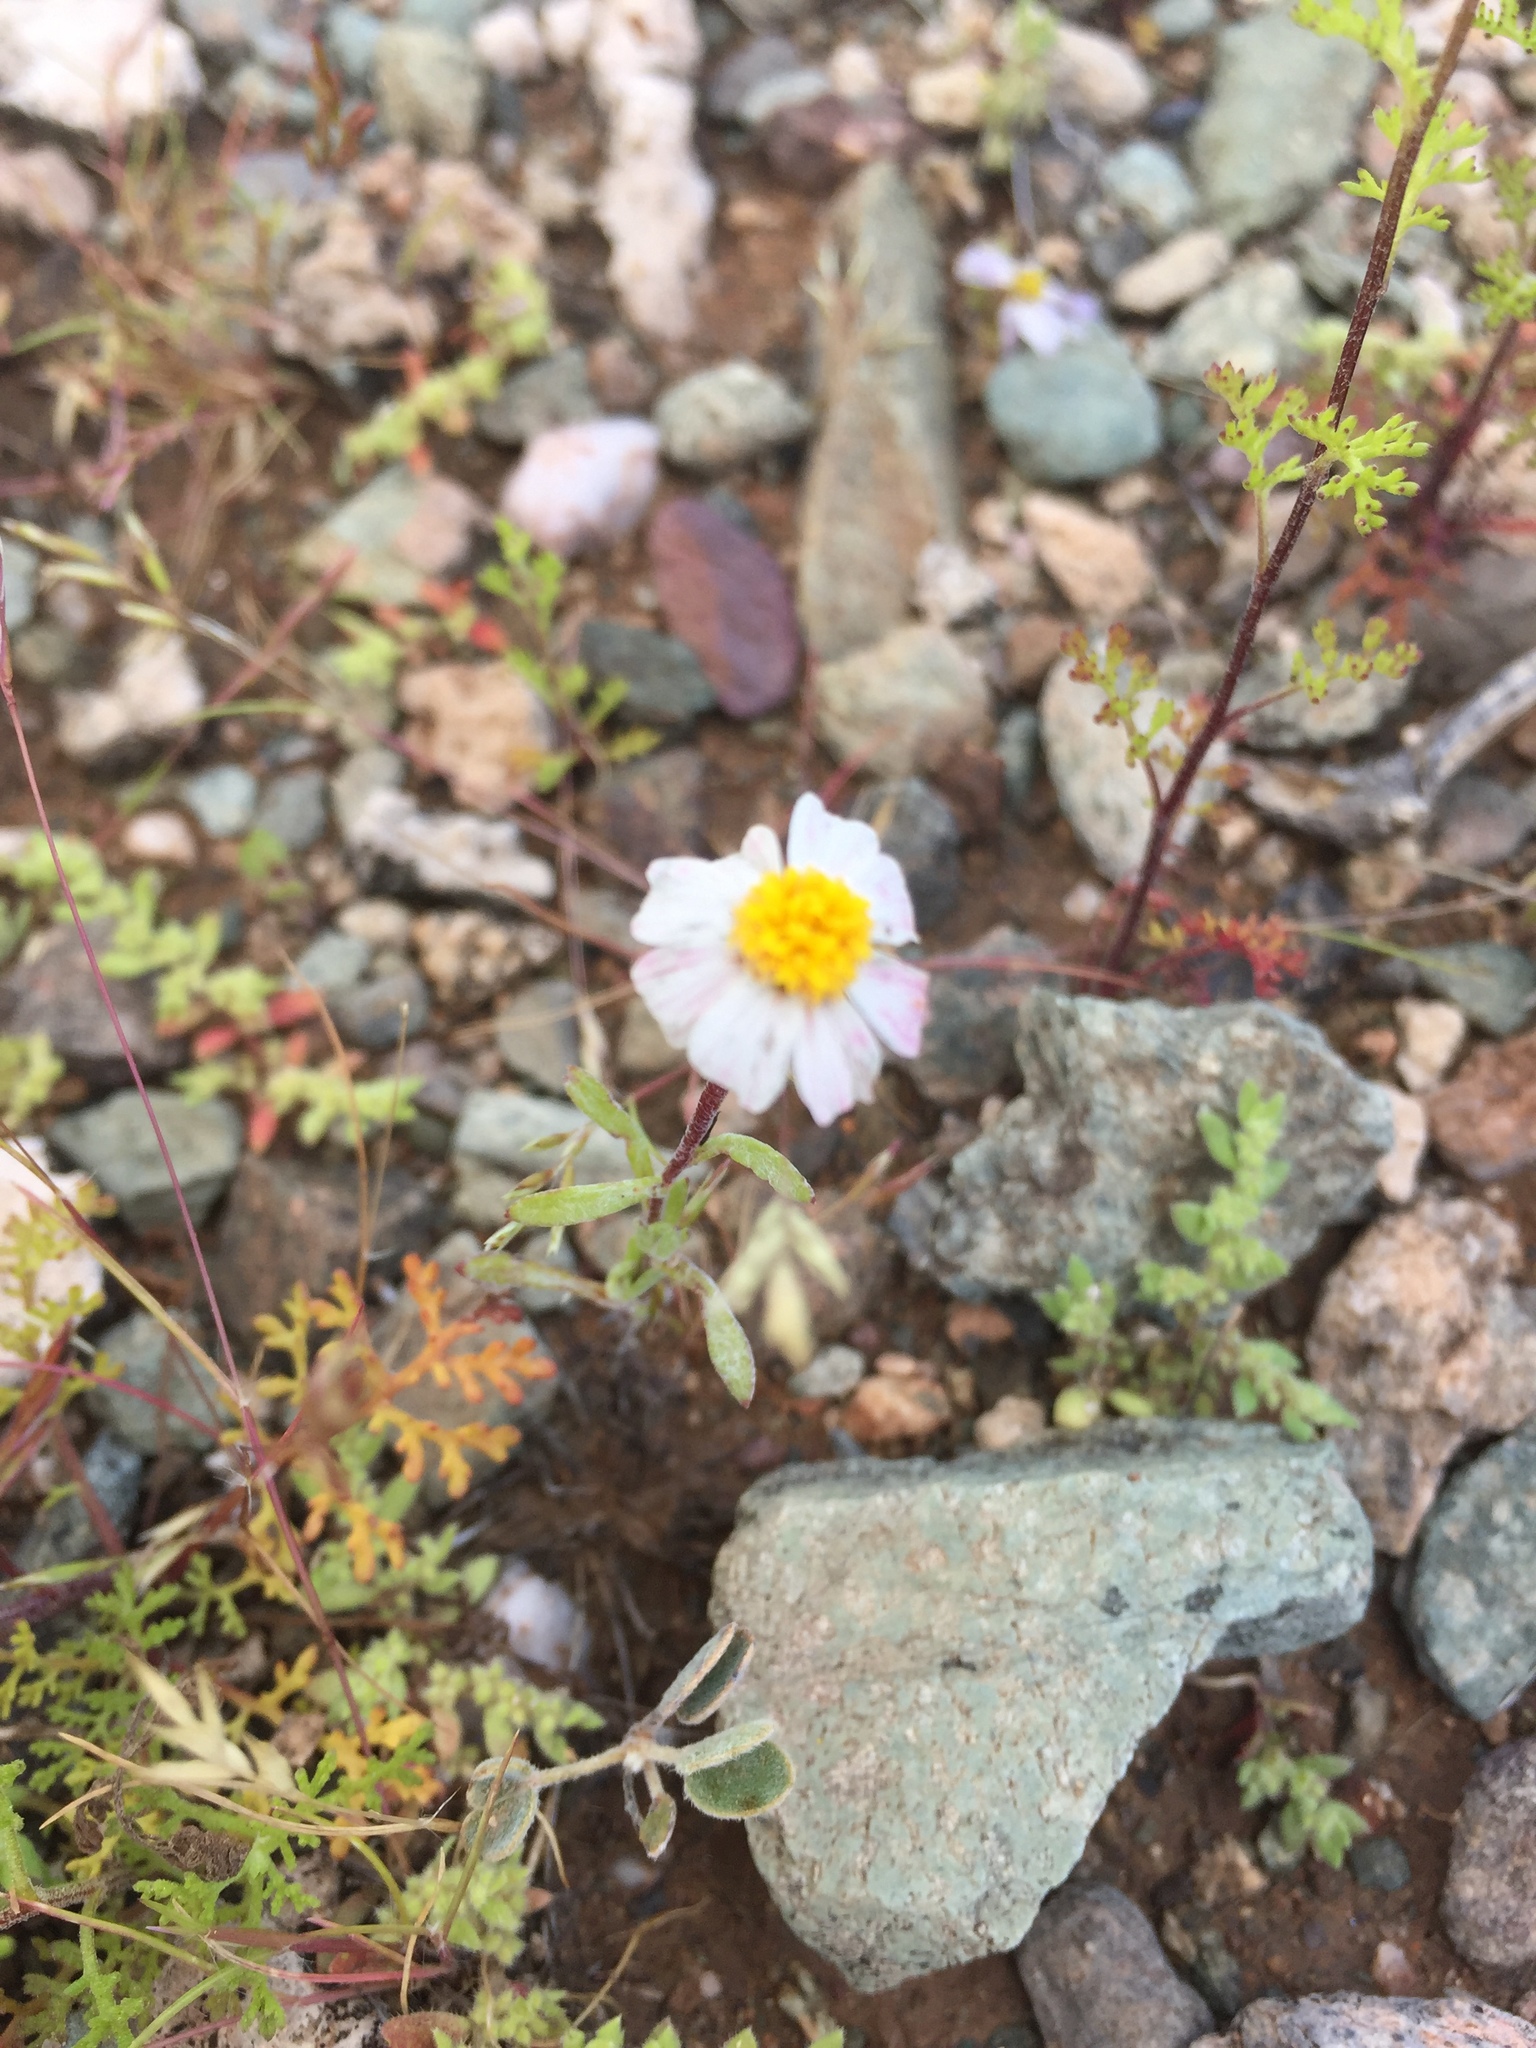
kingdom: Plantae
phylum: Tracheophyta
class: Magnoliopsida
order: Asterales
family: Asteraceae
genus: Eriophyllum
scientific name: Eriophyllum lanosum
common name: White easter-bonnets
